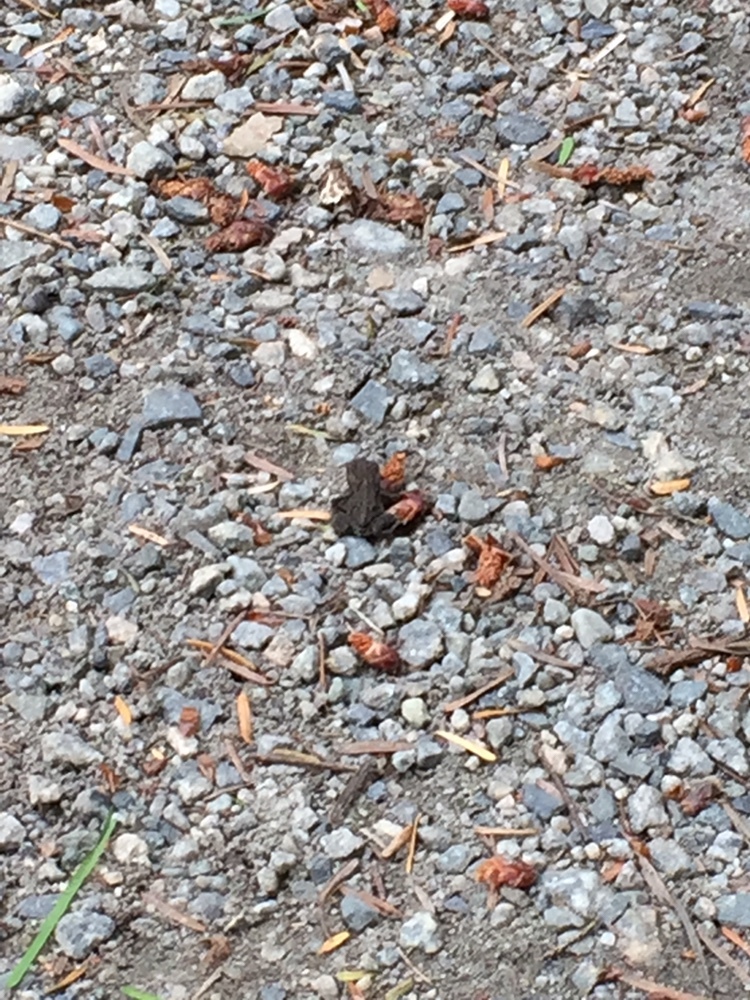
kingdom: Animalia
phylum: Chordata
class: Amphibia
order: Anura
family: Bufonidae
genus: Anaxyrus
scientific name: Anaxyrus boreas
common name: Western toad
